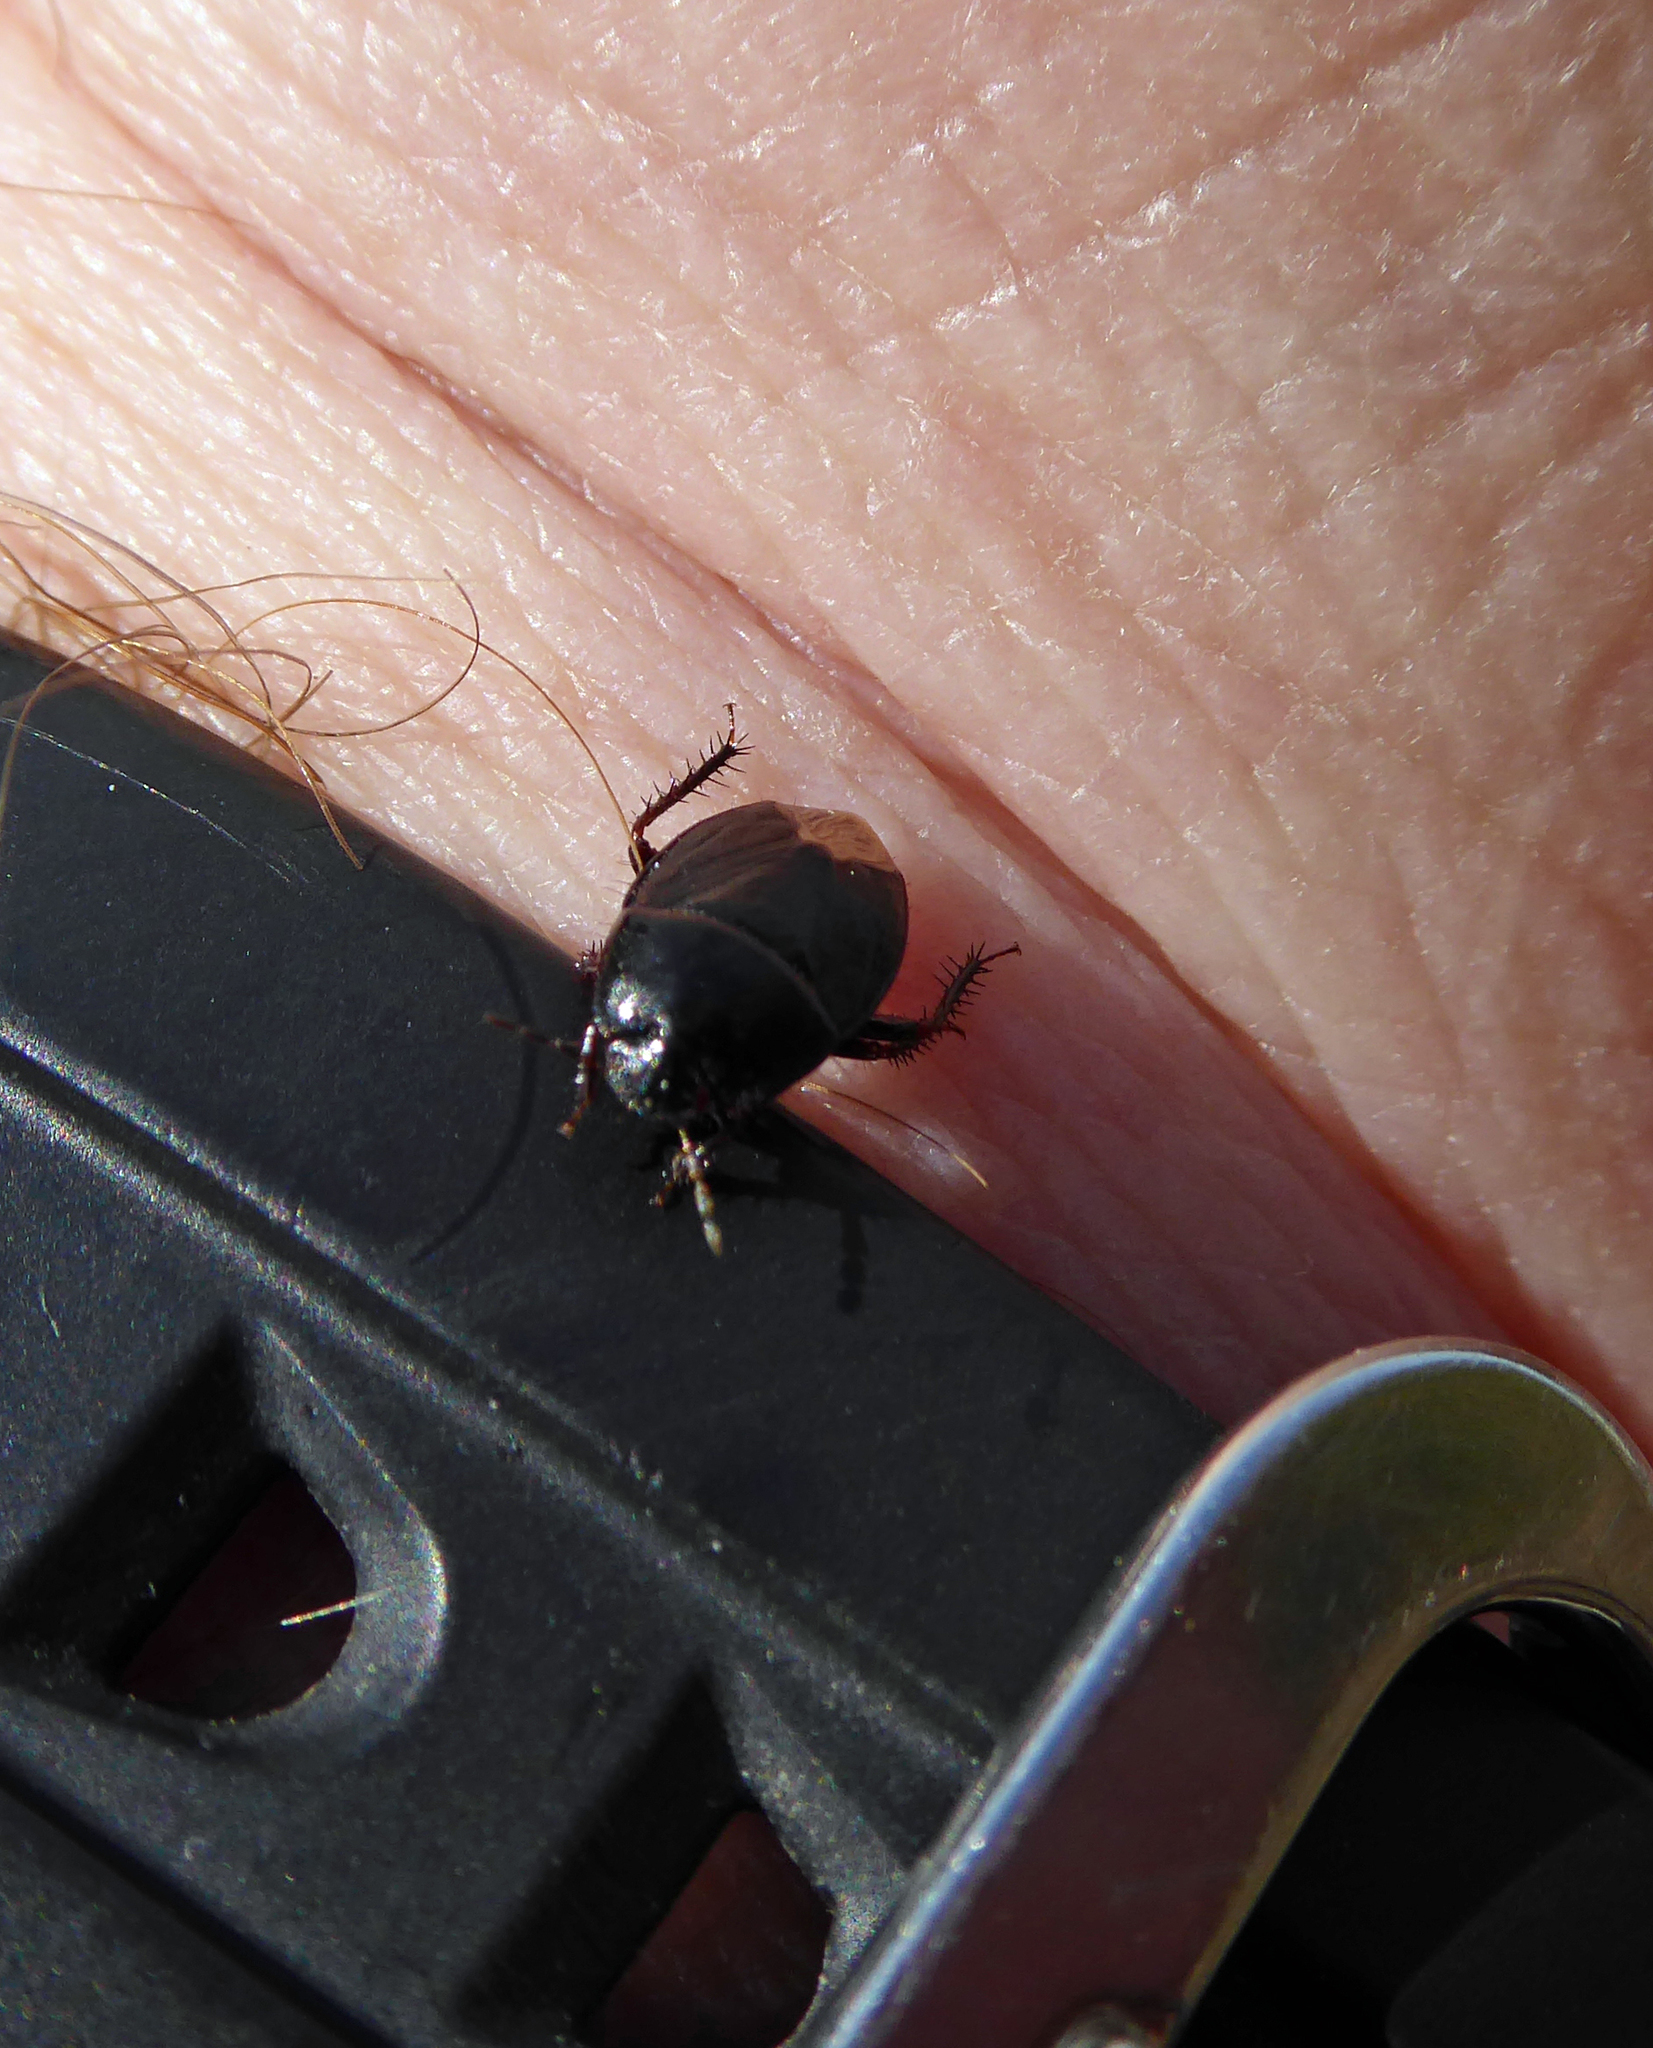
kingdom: Animalia
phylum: Arthropoda
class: Insecta
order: Hemiptera
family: Cydnidae
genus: Macroscytus
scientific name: Macroscytus australis
